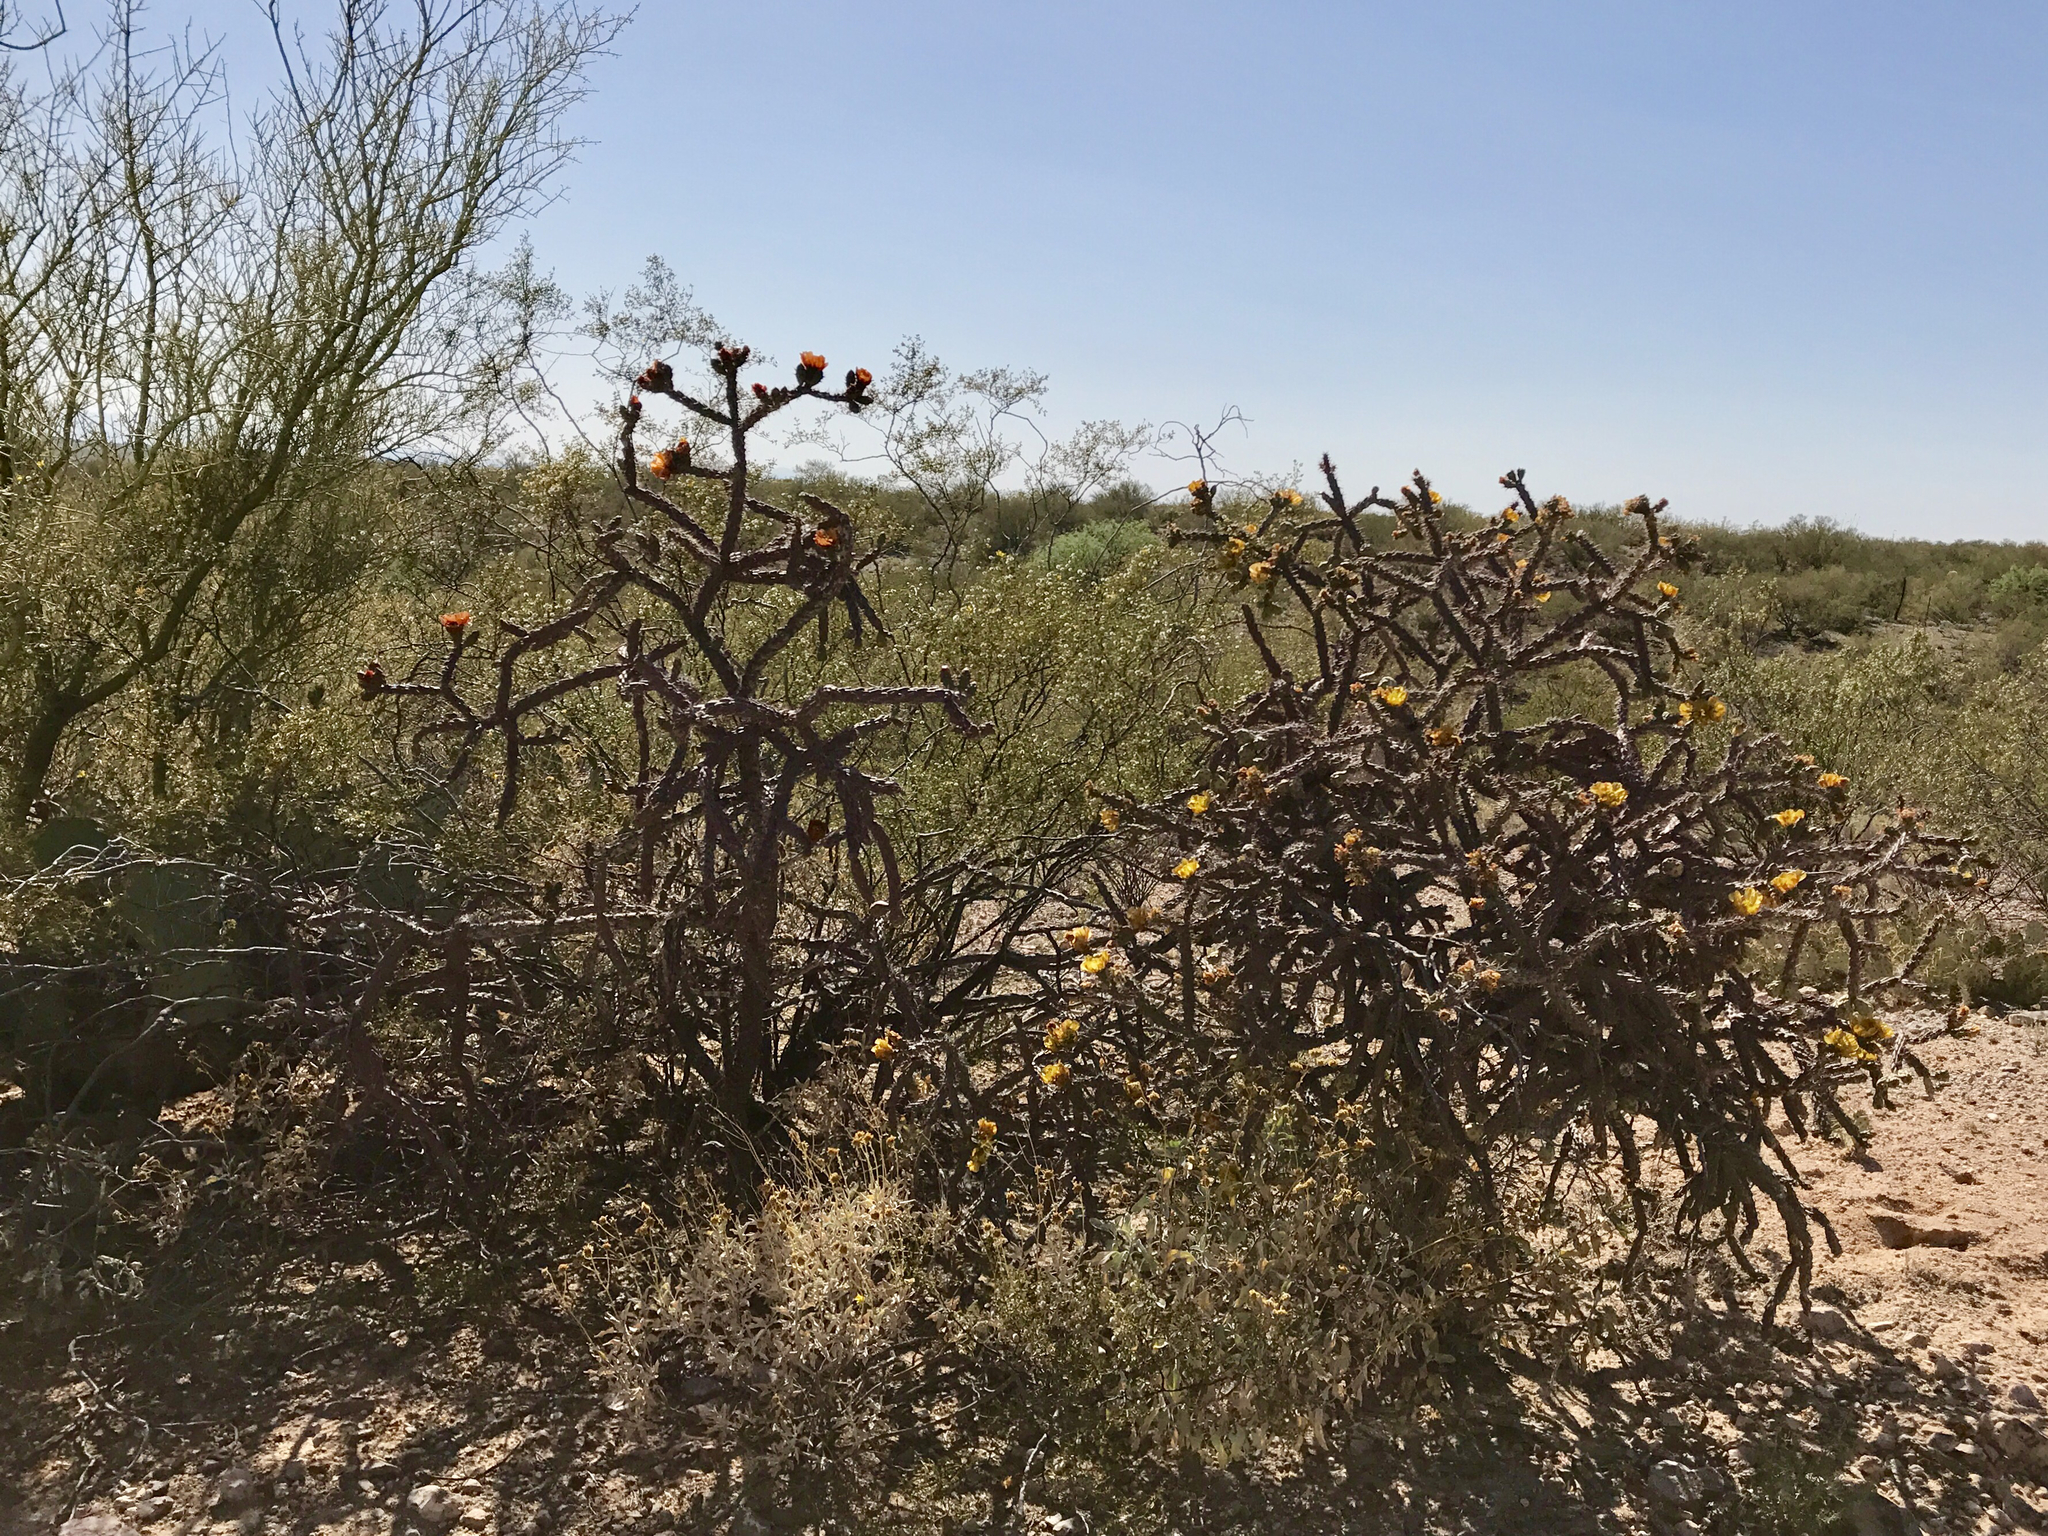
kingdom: Plantae
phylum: Tracheophyta
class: Magnoliopsida
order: Caryophyllales
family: Cactaceae
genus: Cylindropuntia
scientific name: Cylindropuntia thurberi
